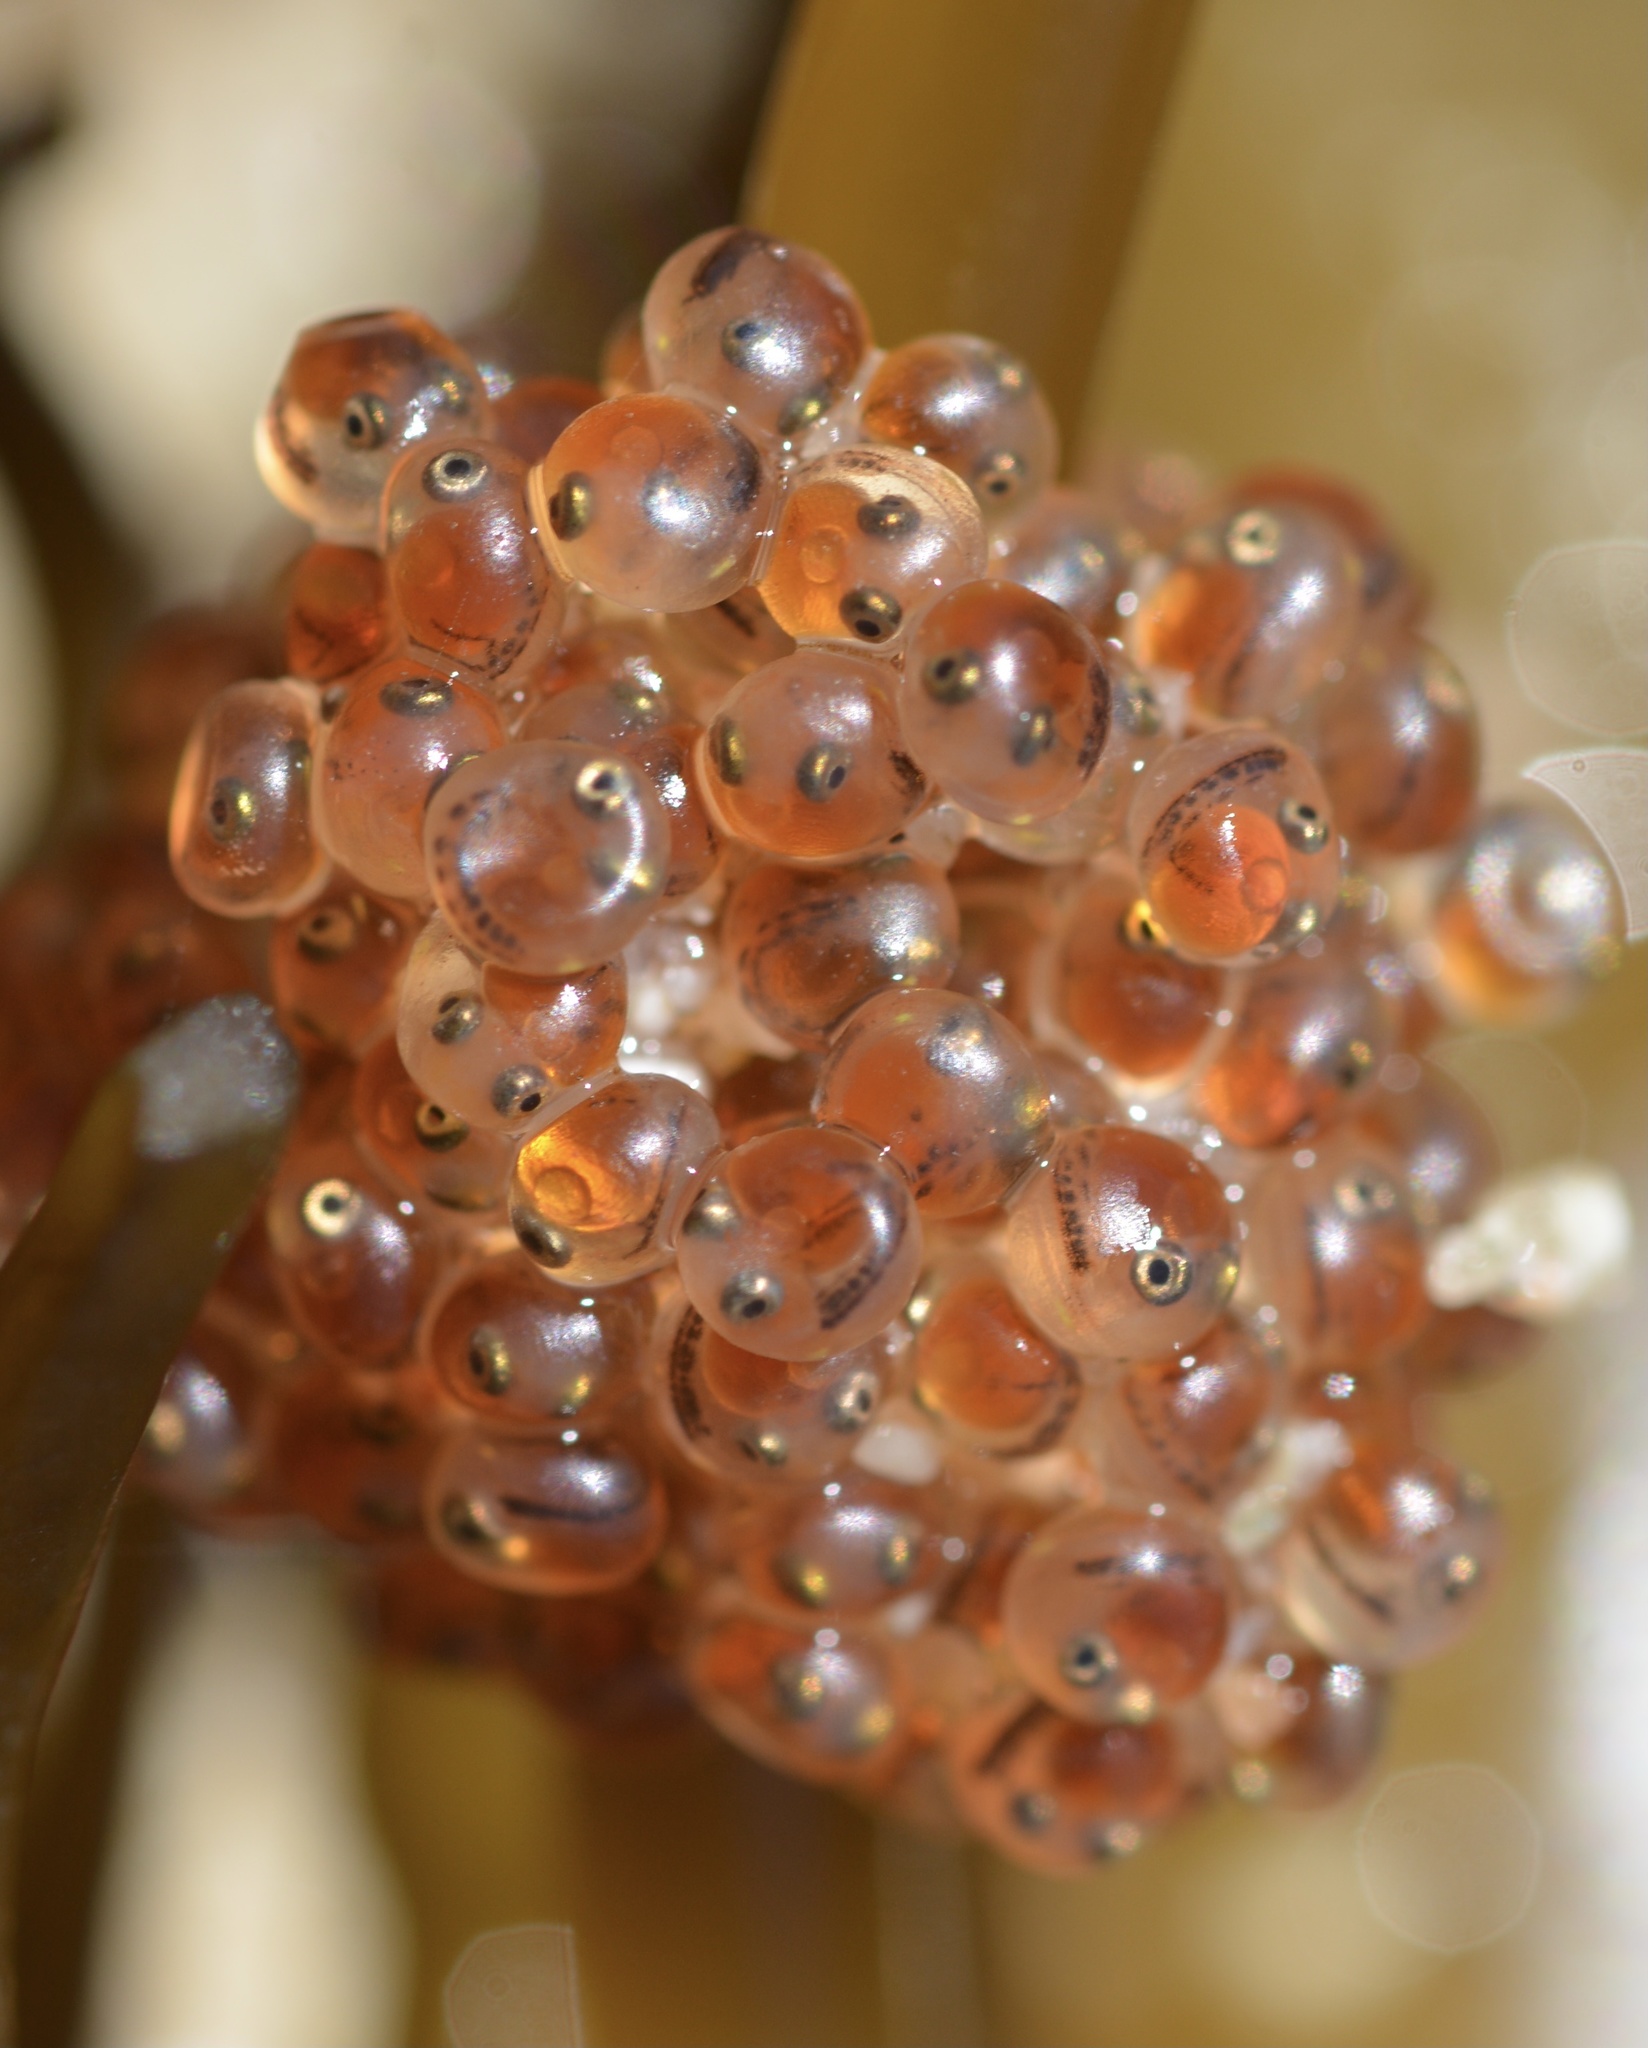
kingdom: Animalia
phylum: Chordata
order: Gasterosteiformes
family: Aulorhynchidae
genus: Aulorhynchus
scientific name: Aulorhynchus flavidus
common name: Tube-snout
